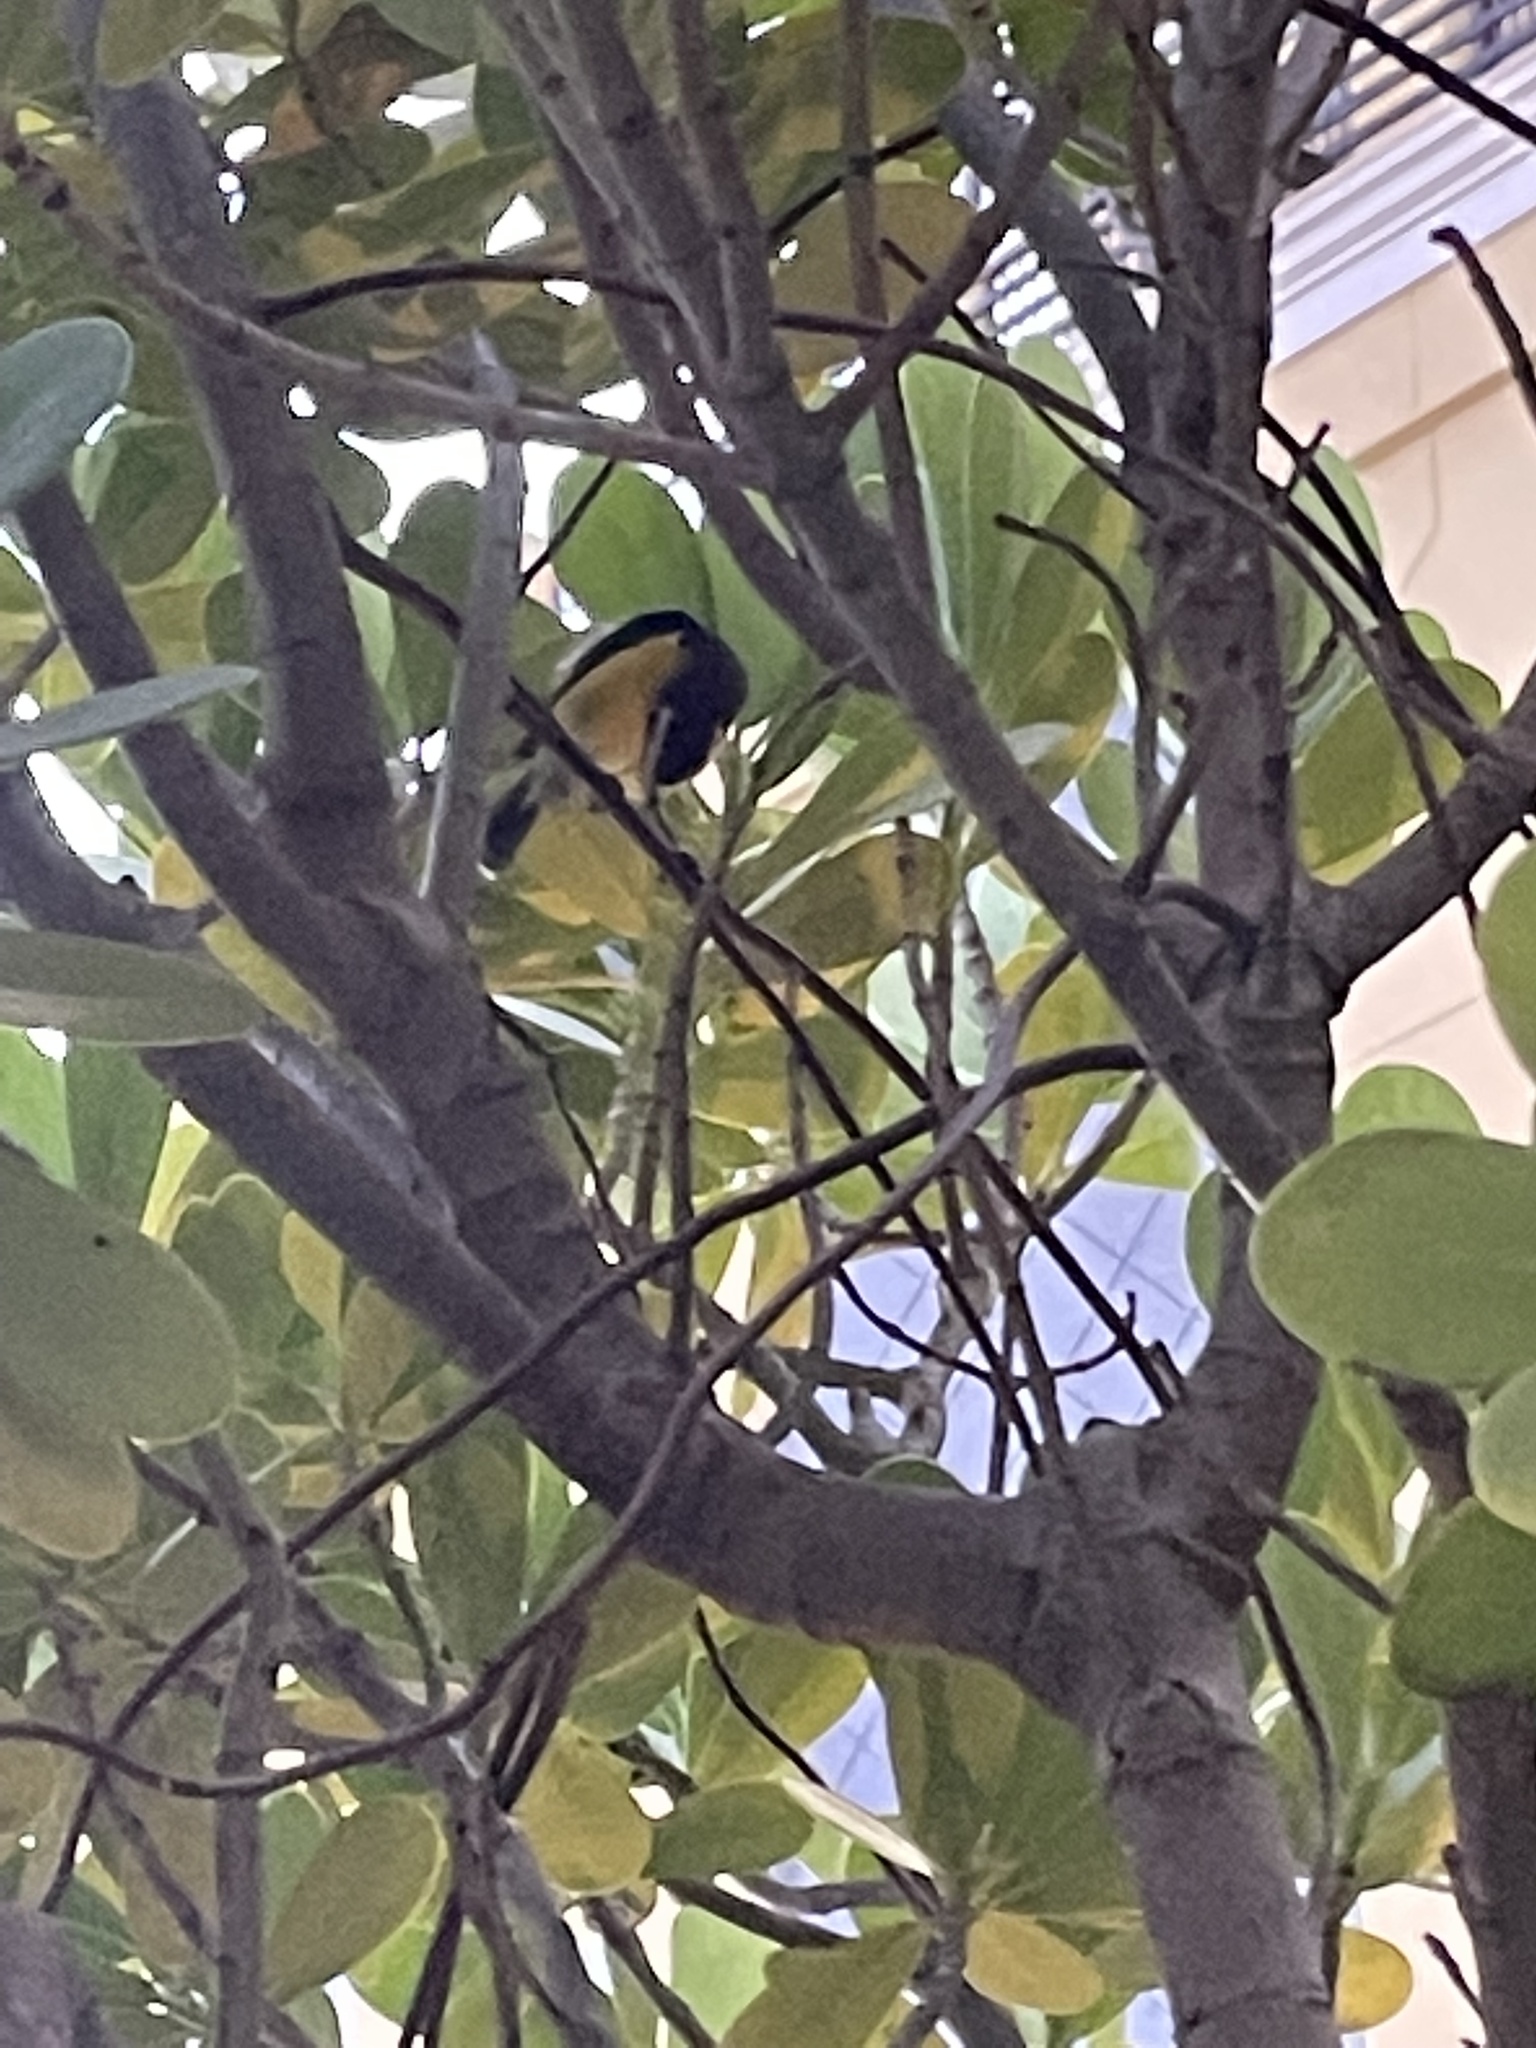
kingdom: Animalia
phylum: Chordata
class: Aves
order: Passeriformes
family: Thraupidae
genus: Coereba
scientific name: Coereba flaveola
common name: Bananaquit
